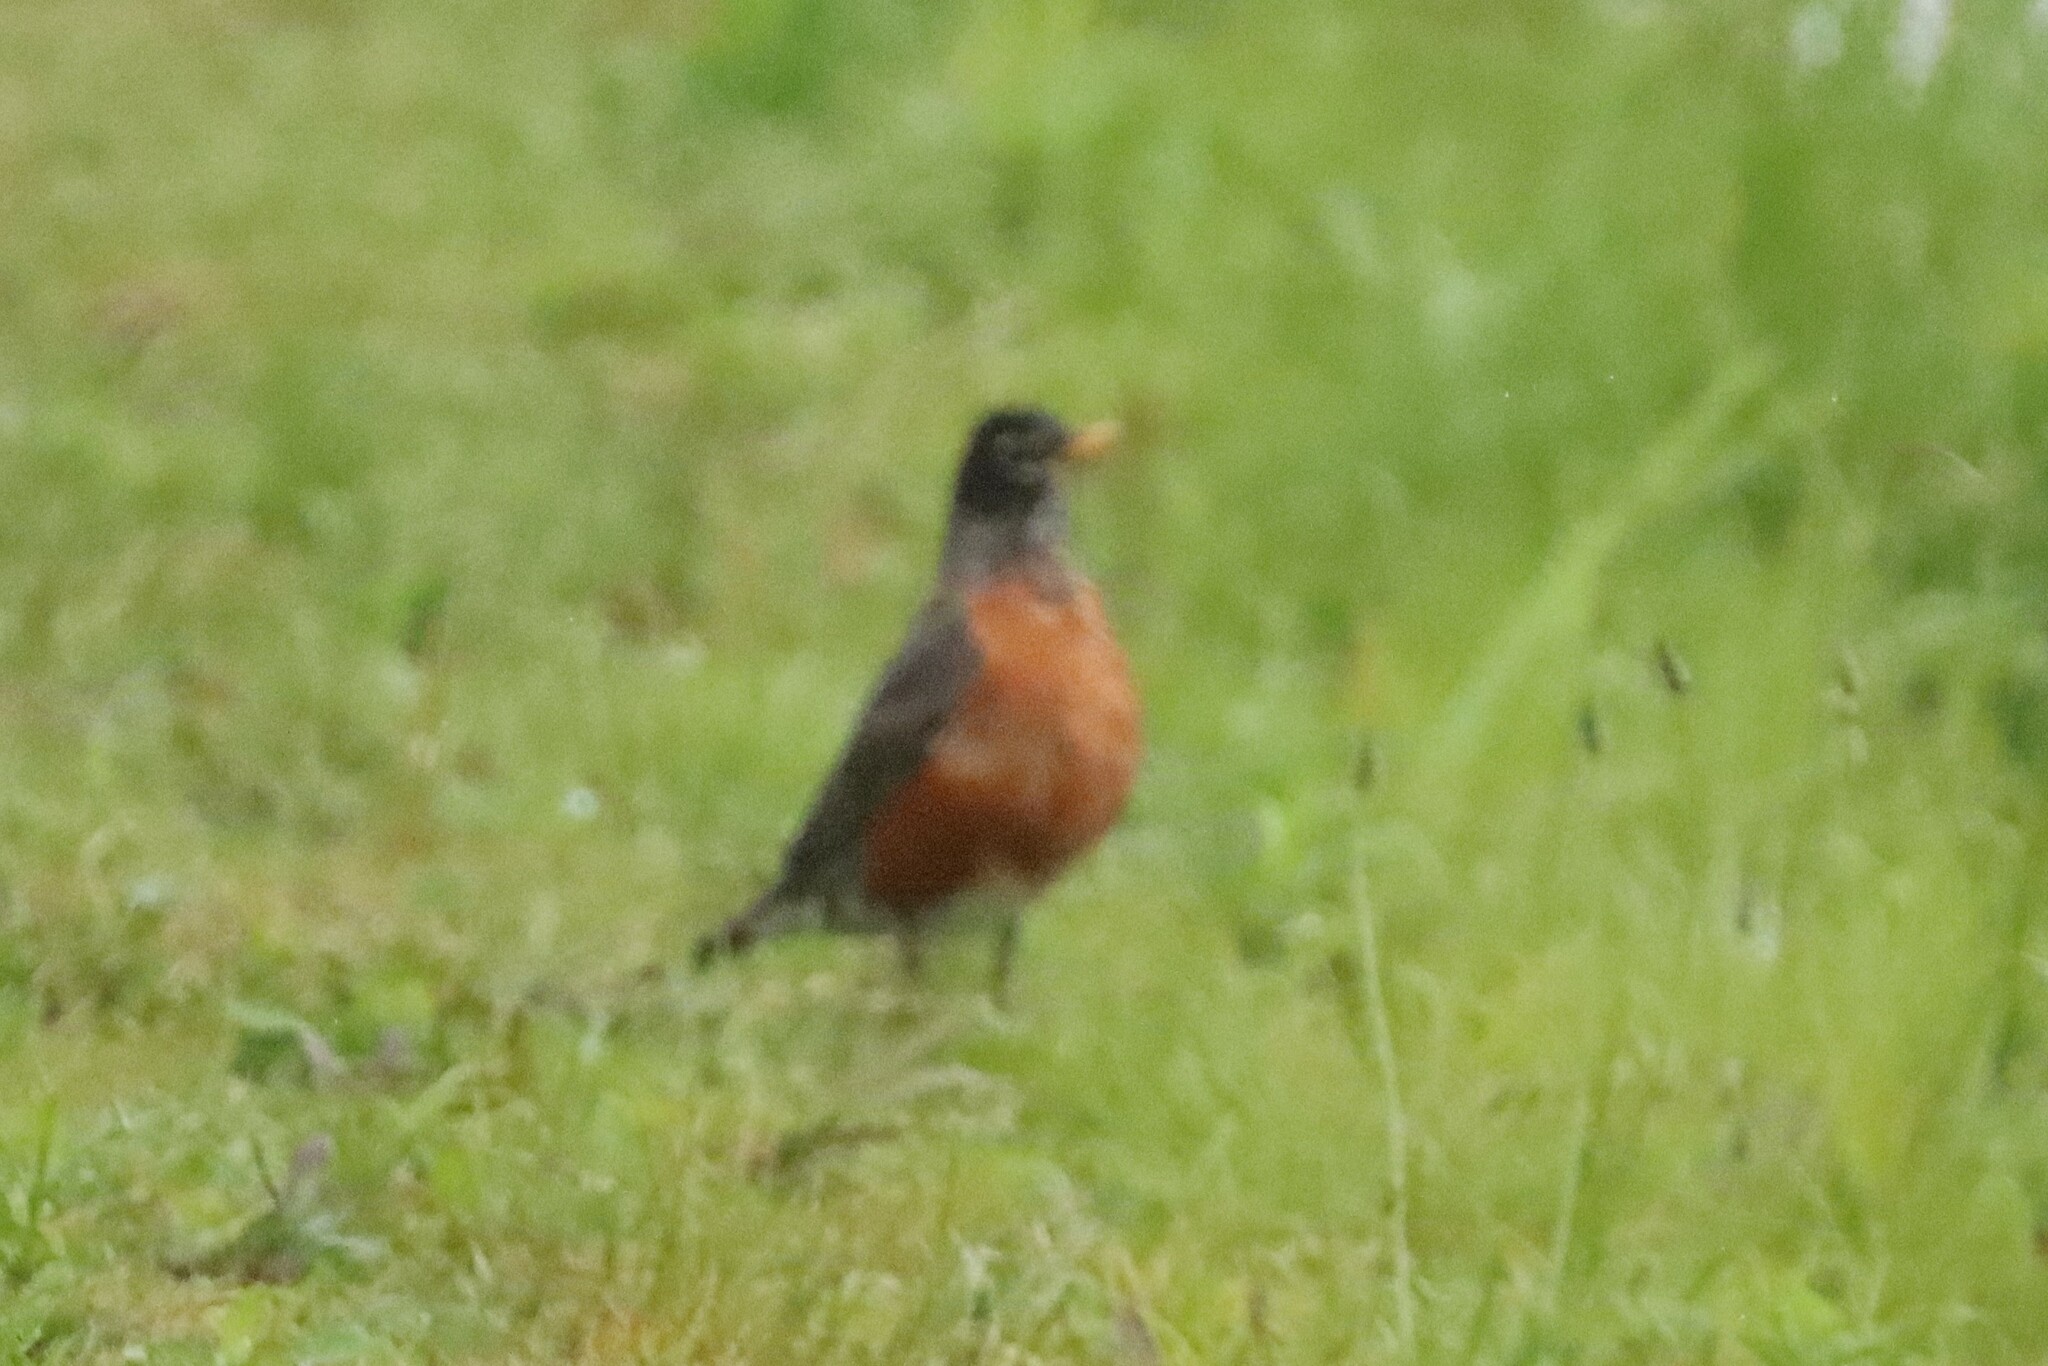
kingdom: Animalia
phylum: Chordata
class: Aves
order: Passeriformes
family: Turdidae
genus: Turdus
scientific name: Turdus migratorius
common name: American robin
